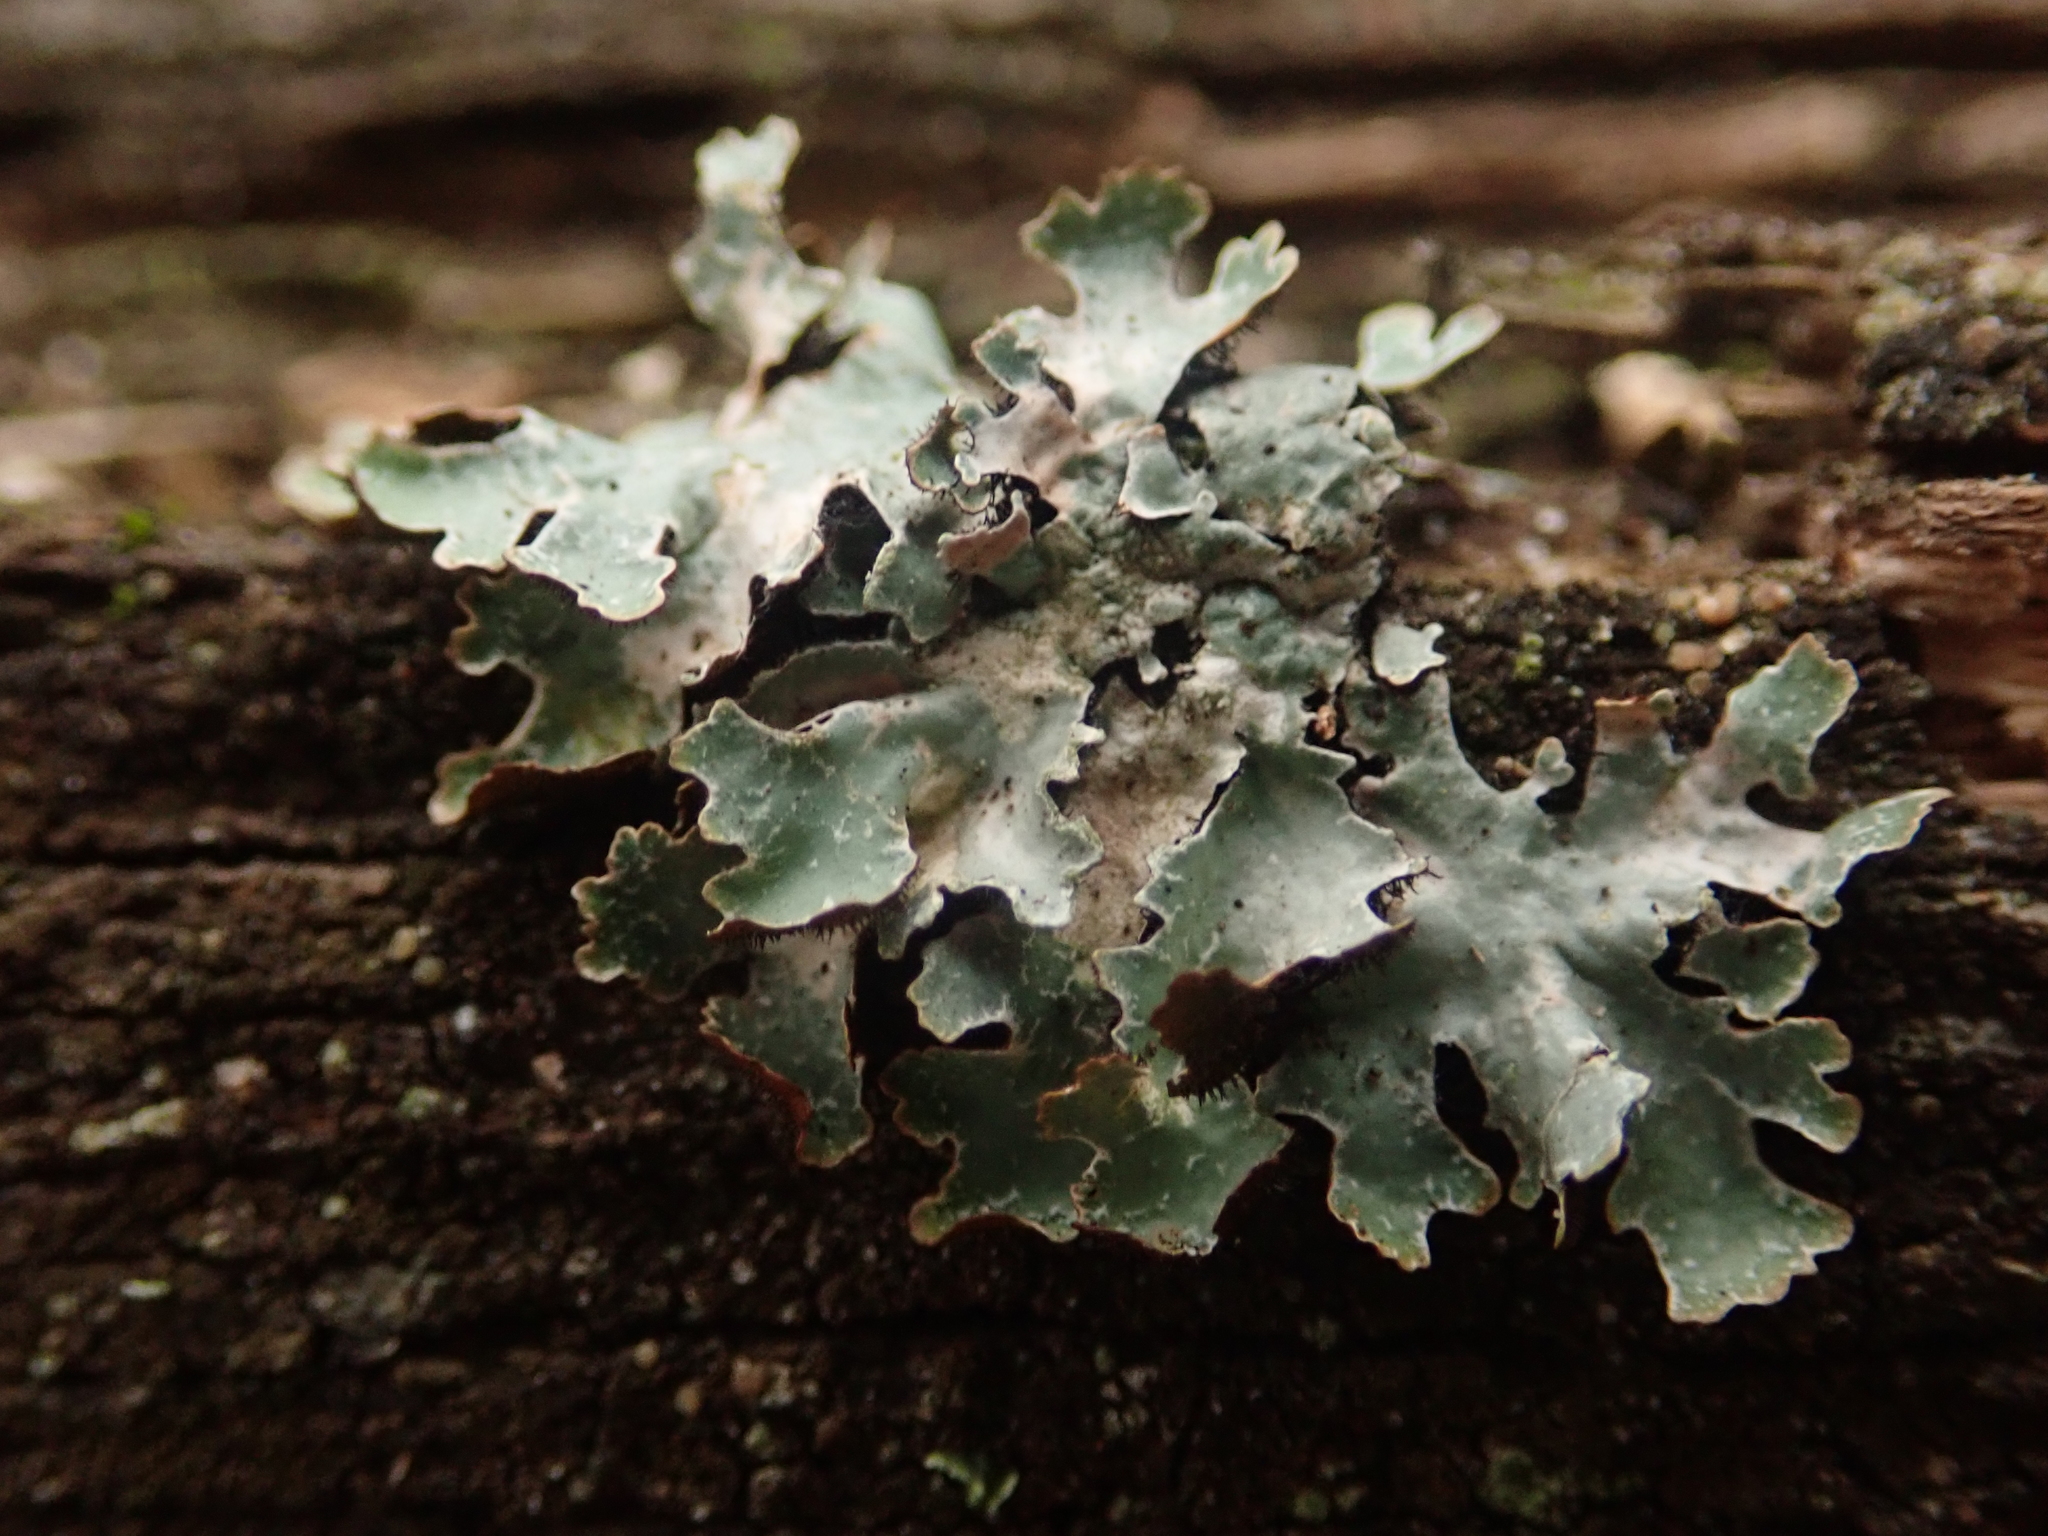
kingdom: Fungi
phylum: Ascomycota
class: Lecanoromycetes
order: Lecanorales
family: Parmeliaceae
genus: Parmelia
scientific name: Parmelia sulcata
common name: Netted shield lichen
